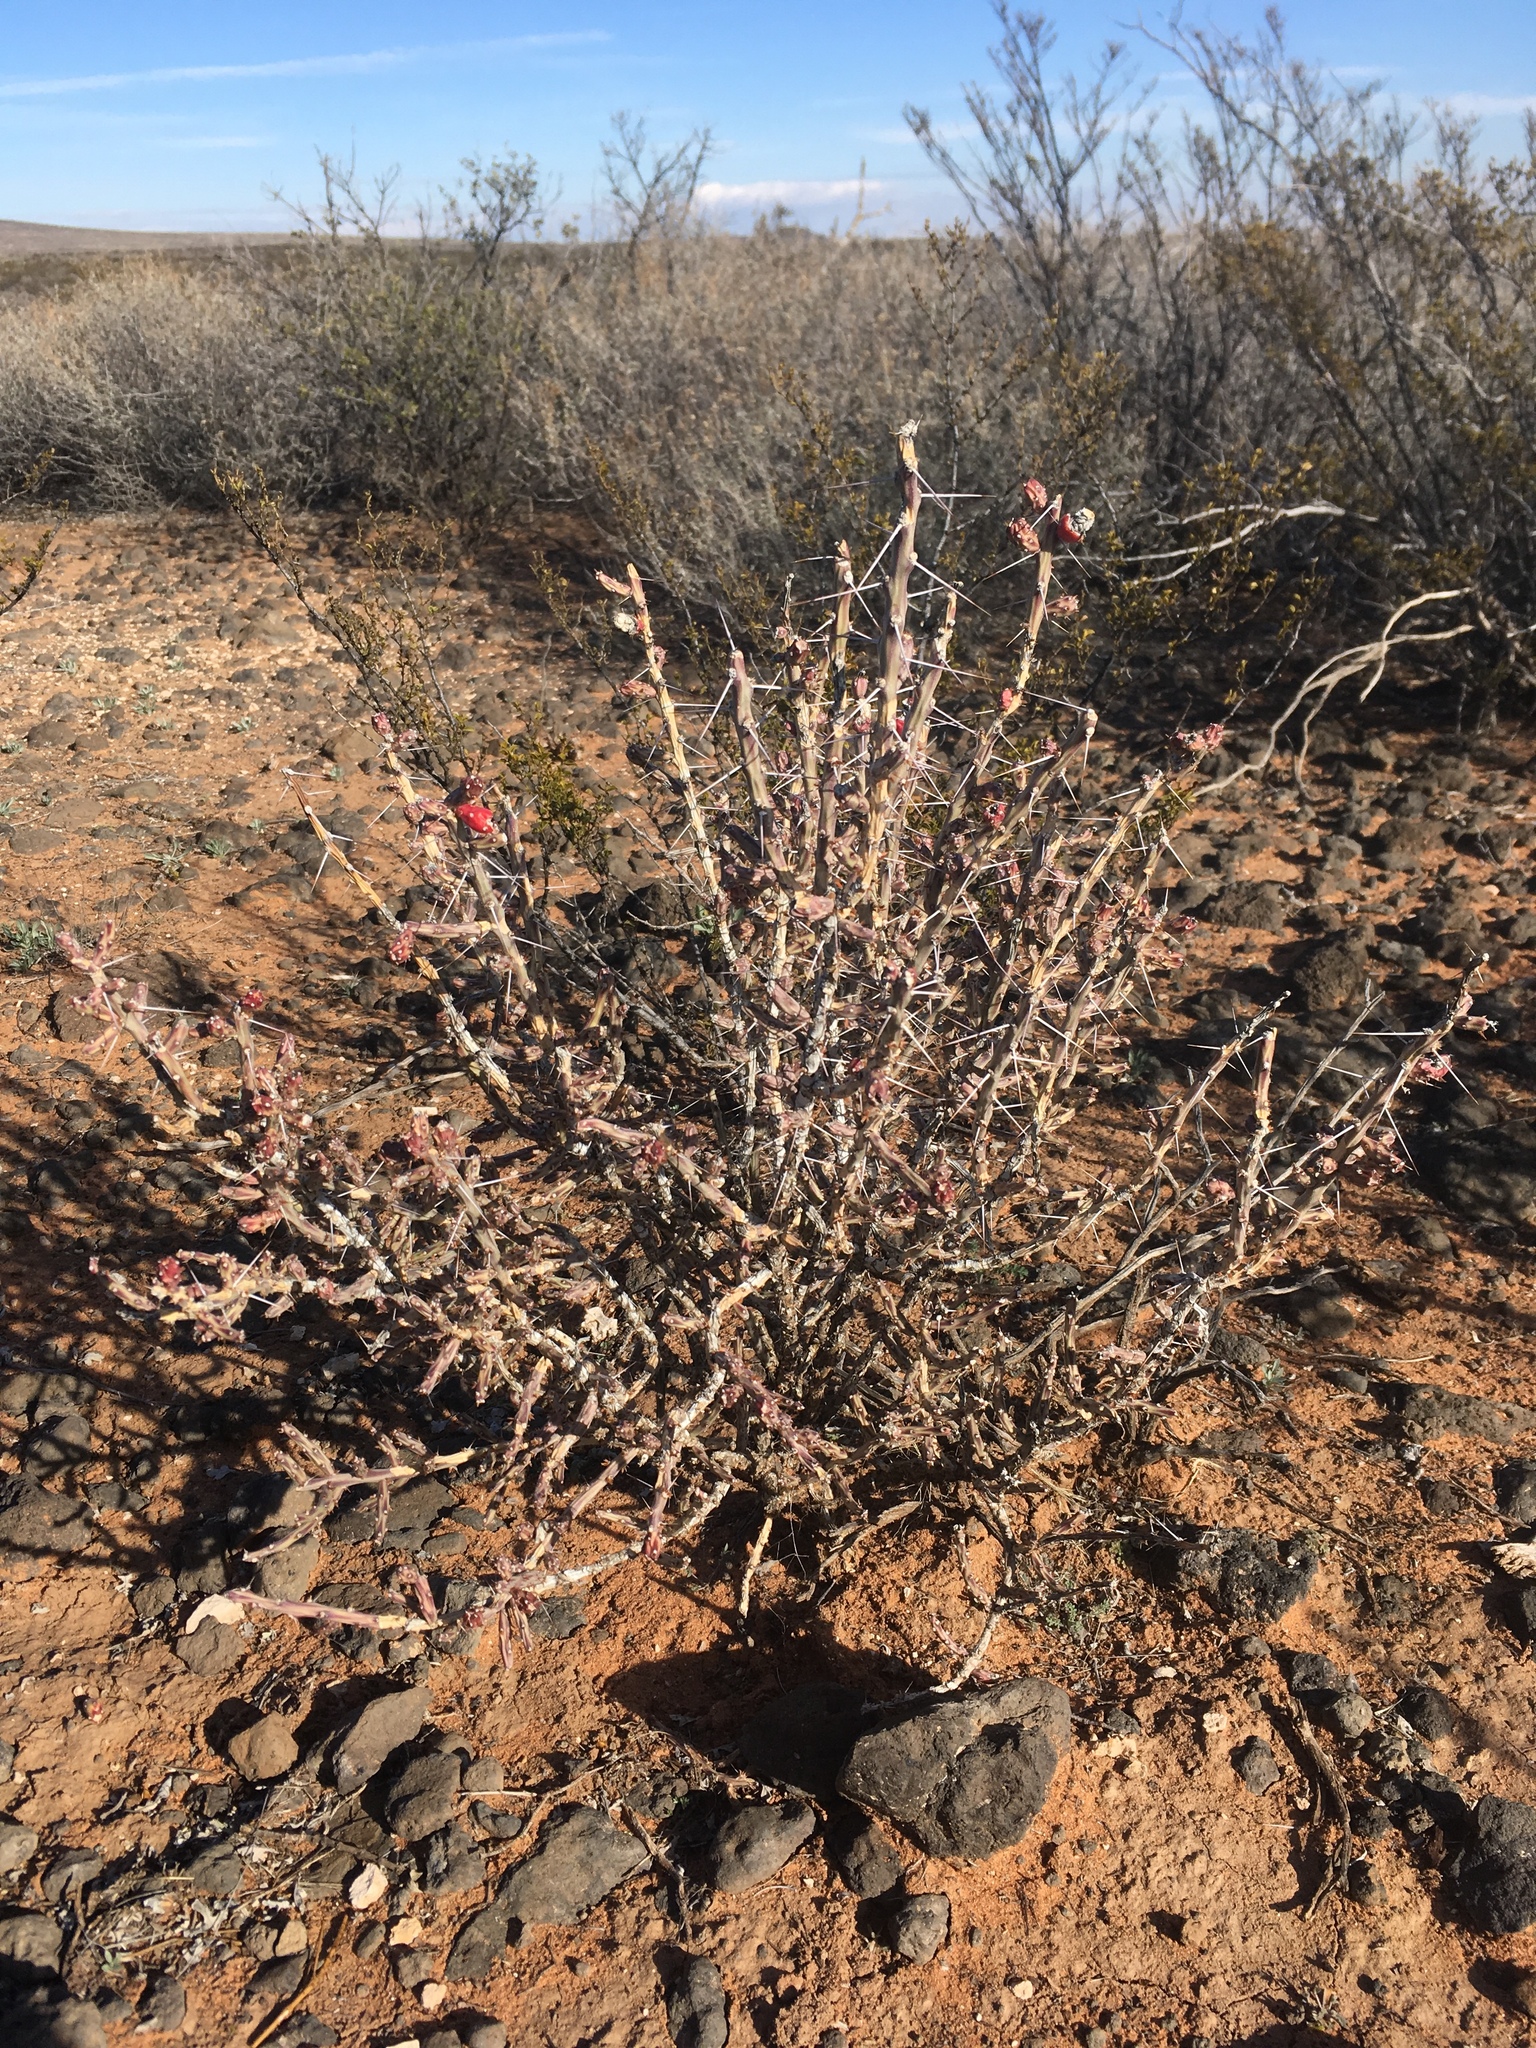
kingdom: Plantae
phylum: Tracheophyta
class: Magnoliopsida
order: Caryophyllales
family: Cactaceae
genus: Cylindropuntia
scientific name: Cylindropuntia leptocaulis
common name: Christmas cactus
